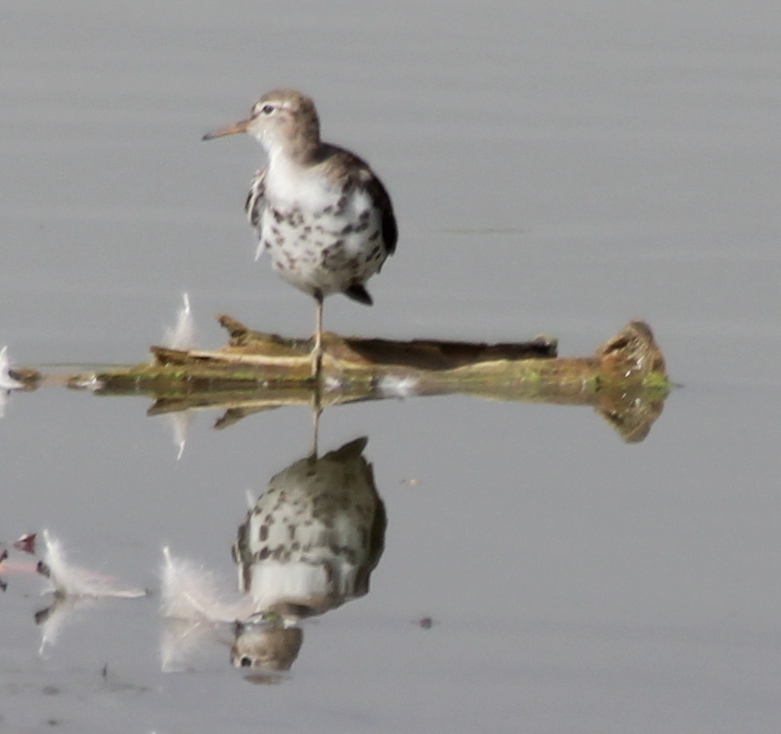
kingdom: Animalia
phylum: Chordata
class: Aves
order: Charadriiformes
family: Scolopacidae
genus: Actitis
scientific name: Actitis macularius
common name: Spotted sandpiper
